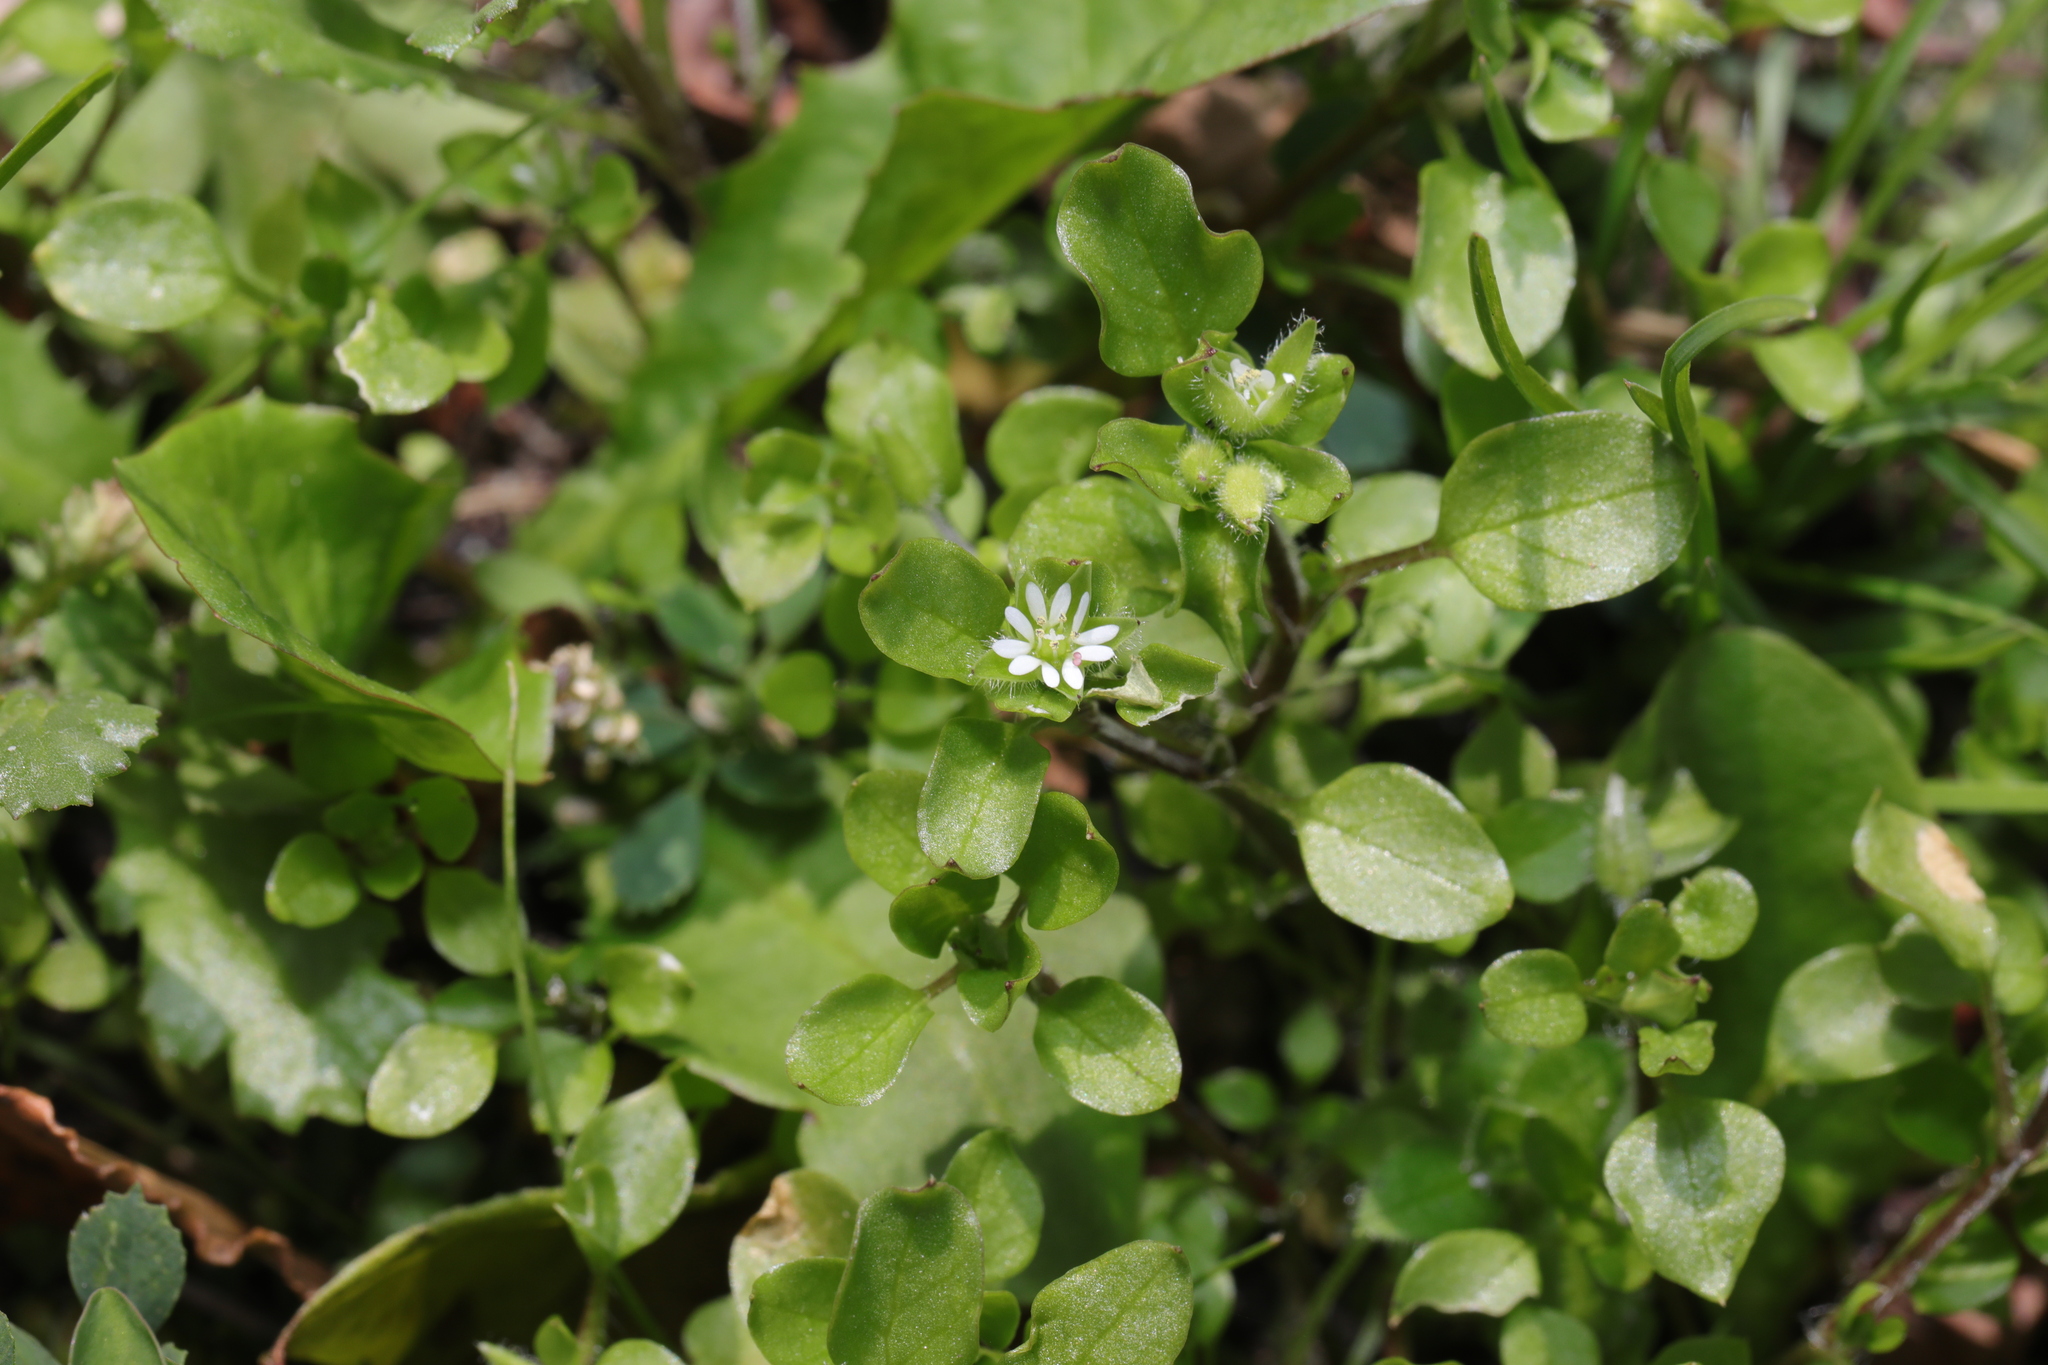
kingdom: Plantae
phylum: Tracheophyta
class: Magnoliopsida
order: Caryophyllales
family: Caryophyllaceae
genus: Stellaria
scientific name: Stellaria media
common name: Common chickweed
